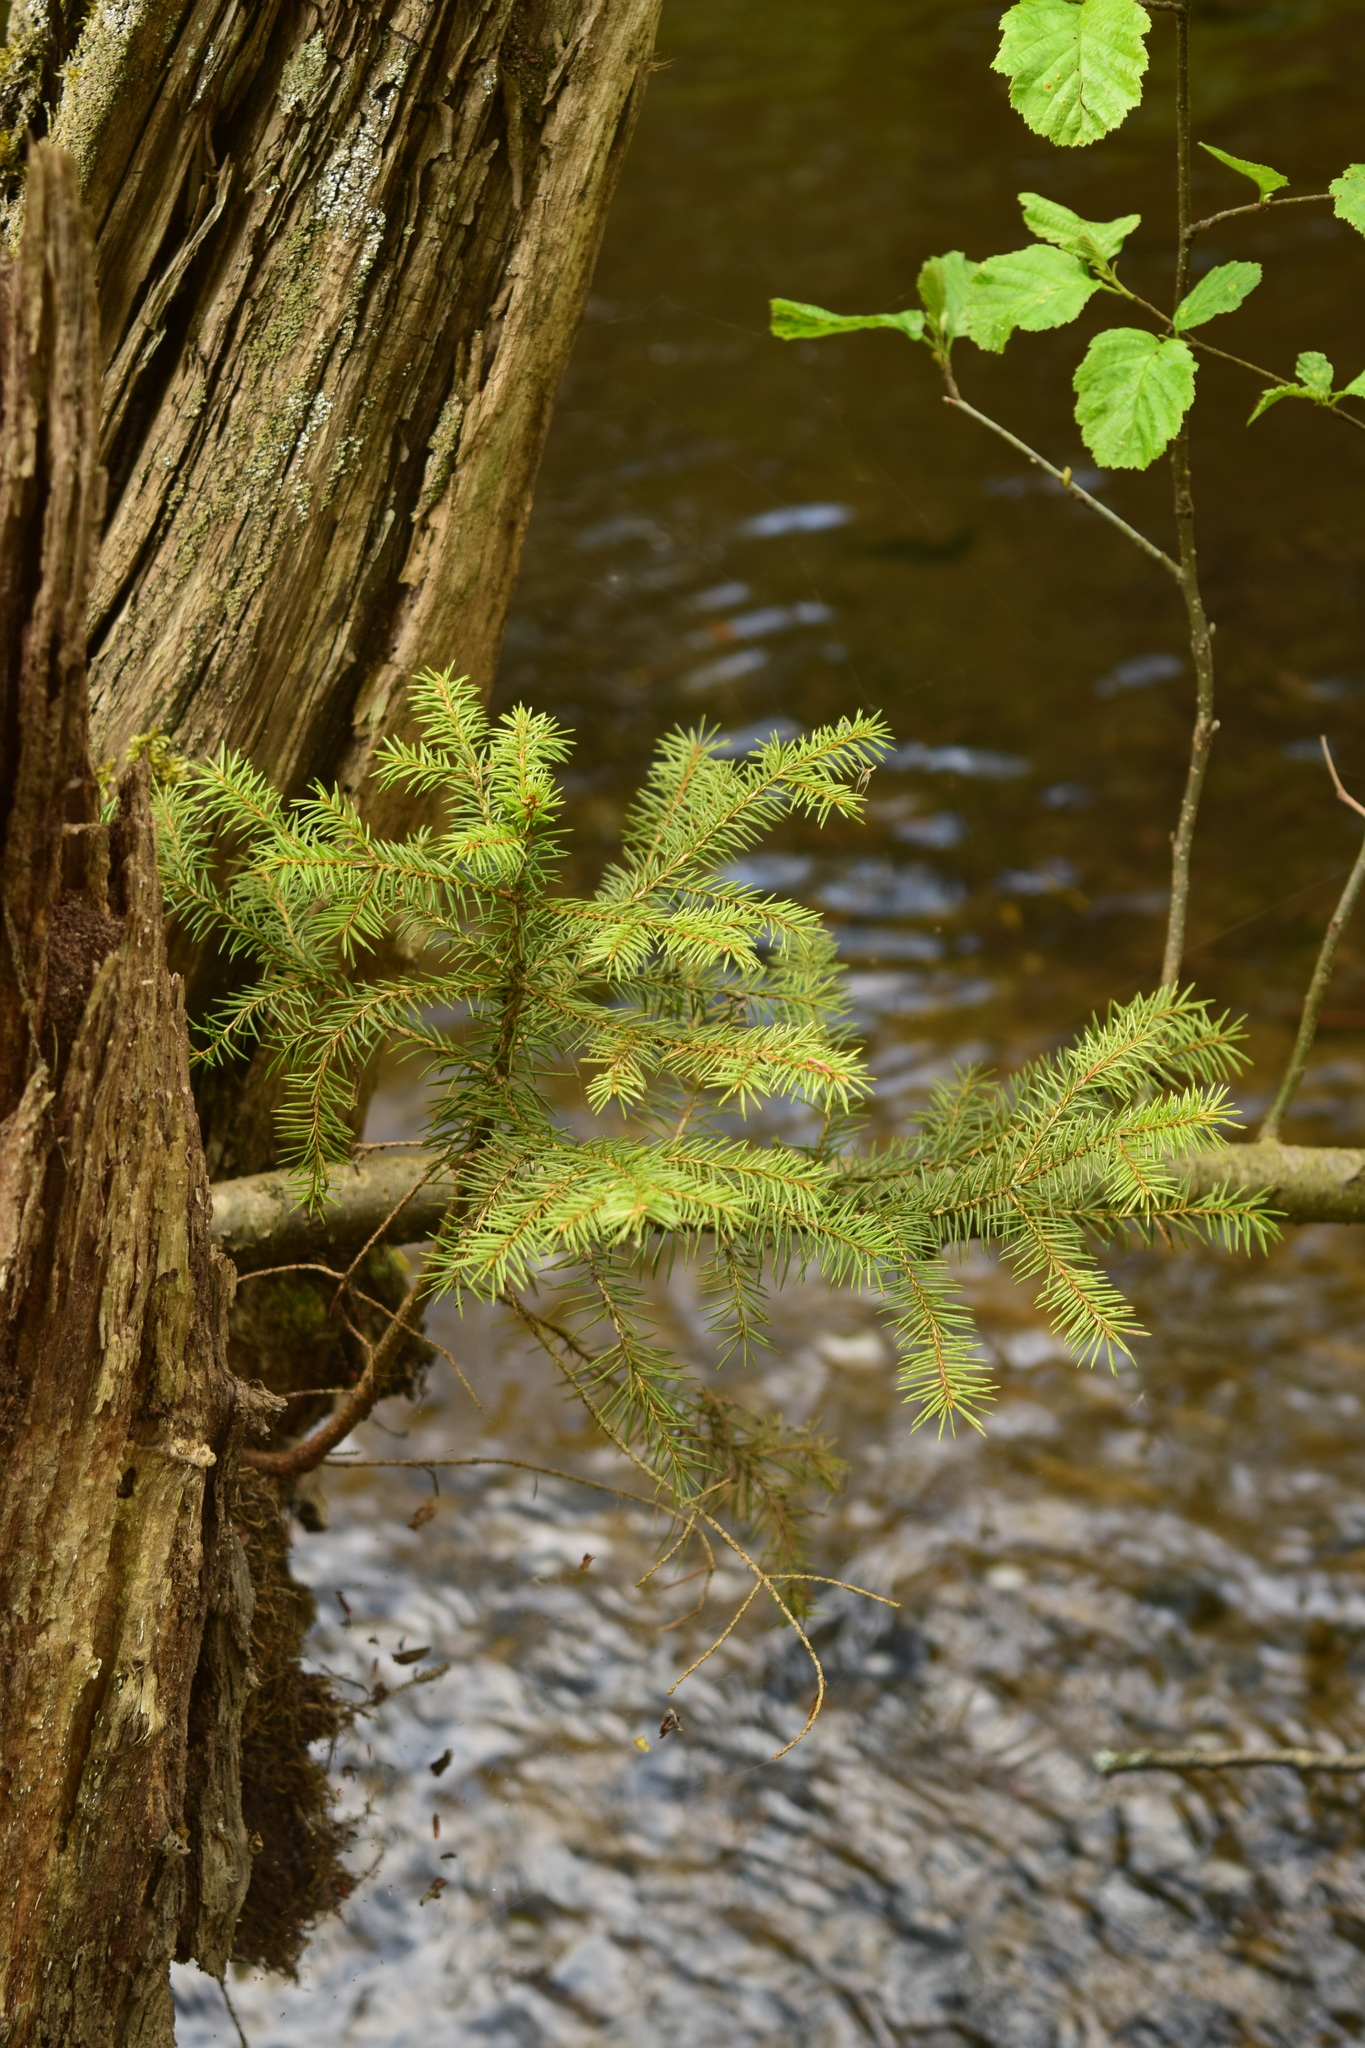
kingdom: Plantae
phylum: Tracheophyta
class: Pinopsida
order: Pinales
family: Pinaceae
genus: Picea
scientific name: Picea abies
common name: Norway spruce
